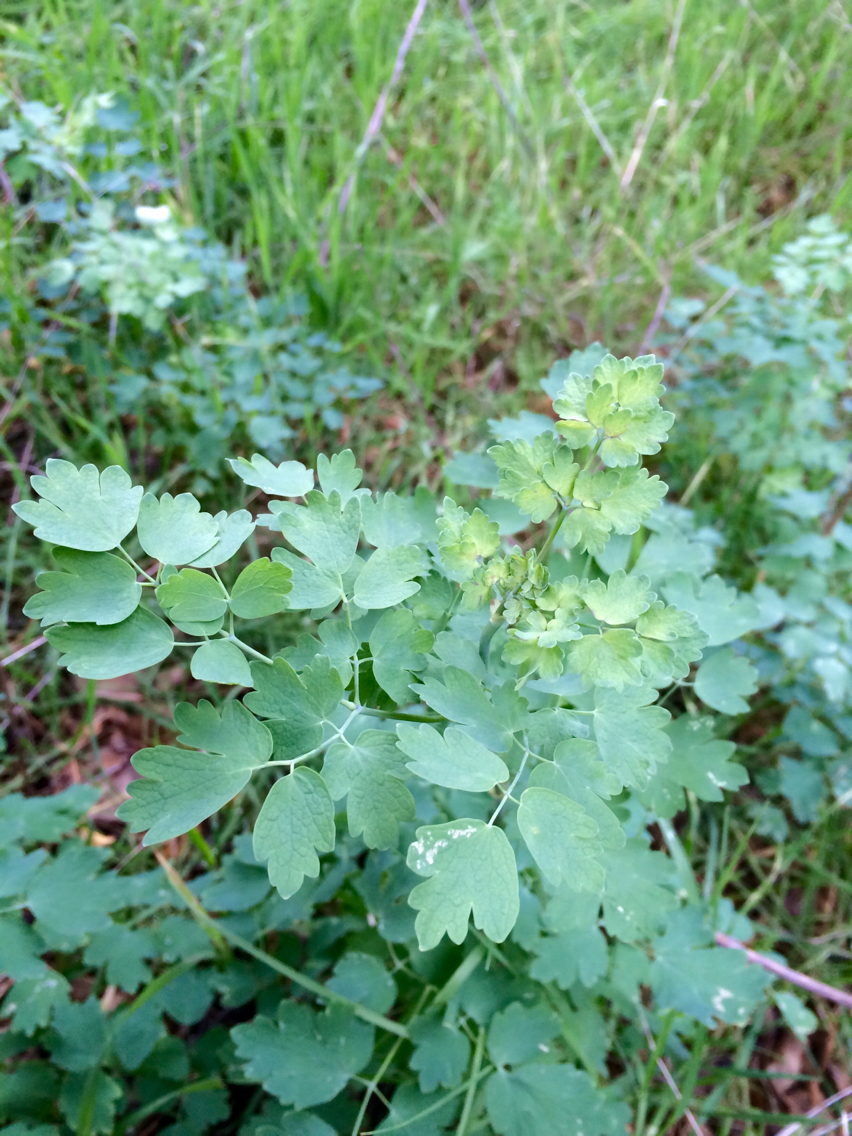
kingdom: Plantae
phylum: Tracheophyta
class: Magnoliopsida
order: Ranunculales
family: Ranunculaceae
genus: Thalictrum
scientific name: Thalictrum fendleri
